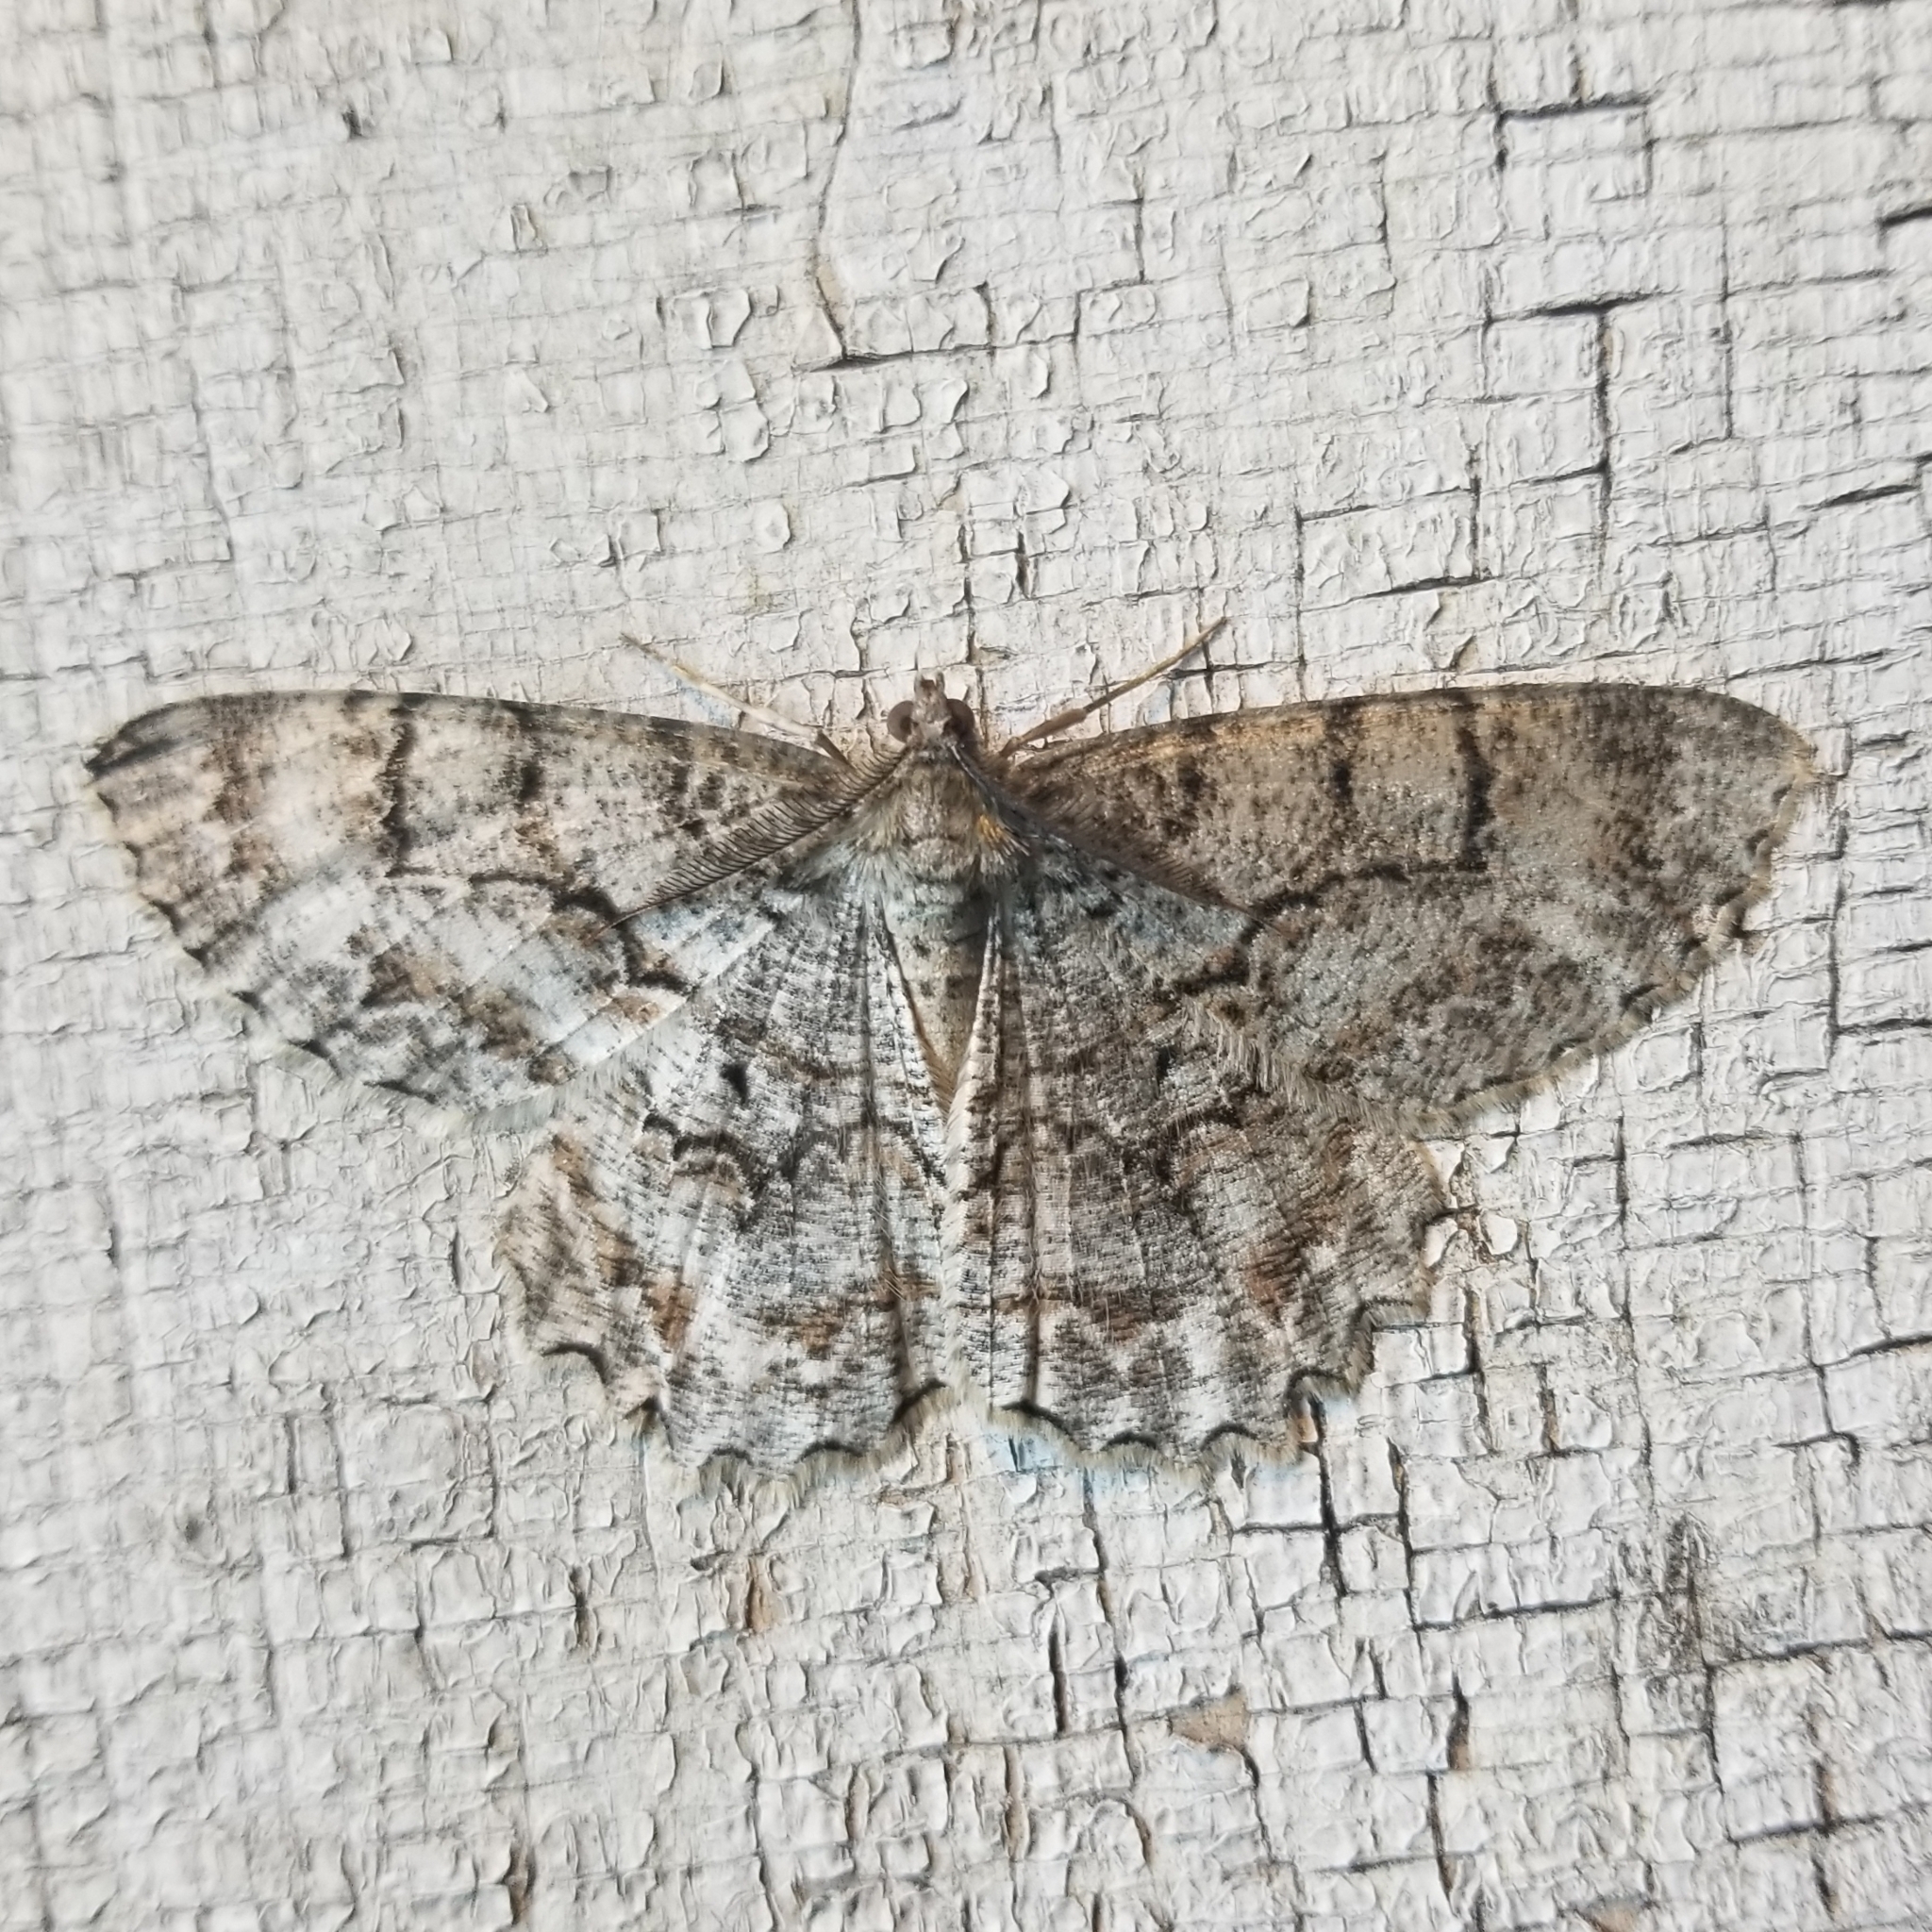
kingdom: Animalia
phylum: Arthropoda
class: Insecta
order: Lepidoptera
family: Geometridae
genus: Epimecis
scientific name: Epimecis hortaria
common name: Tulip-tree beauty
